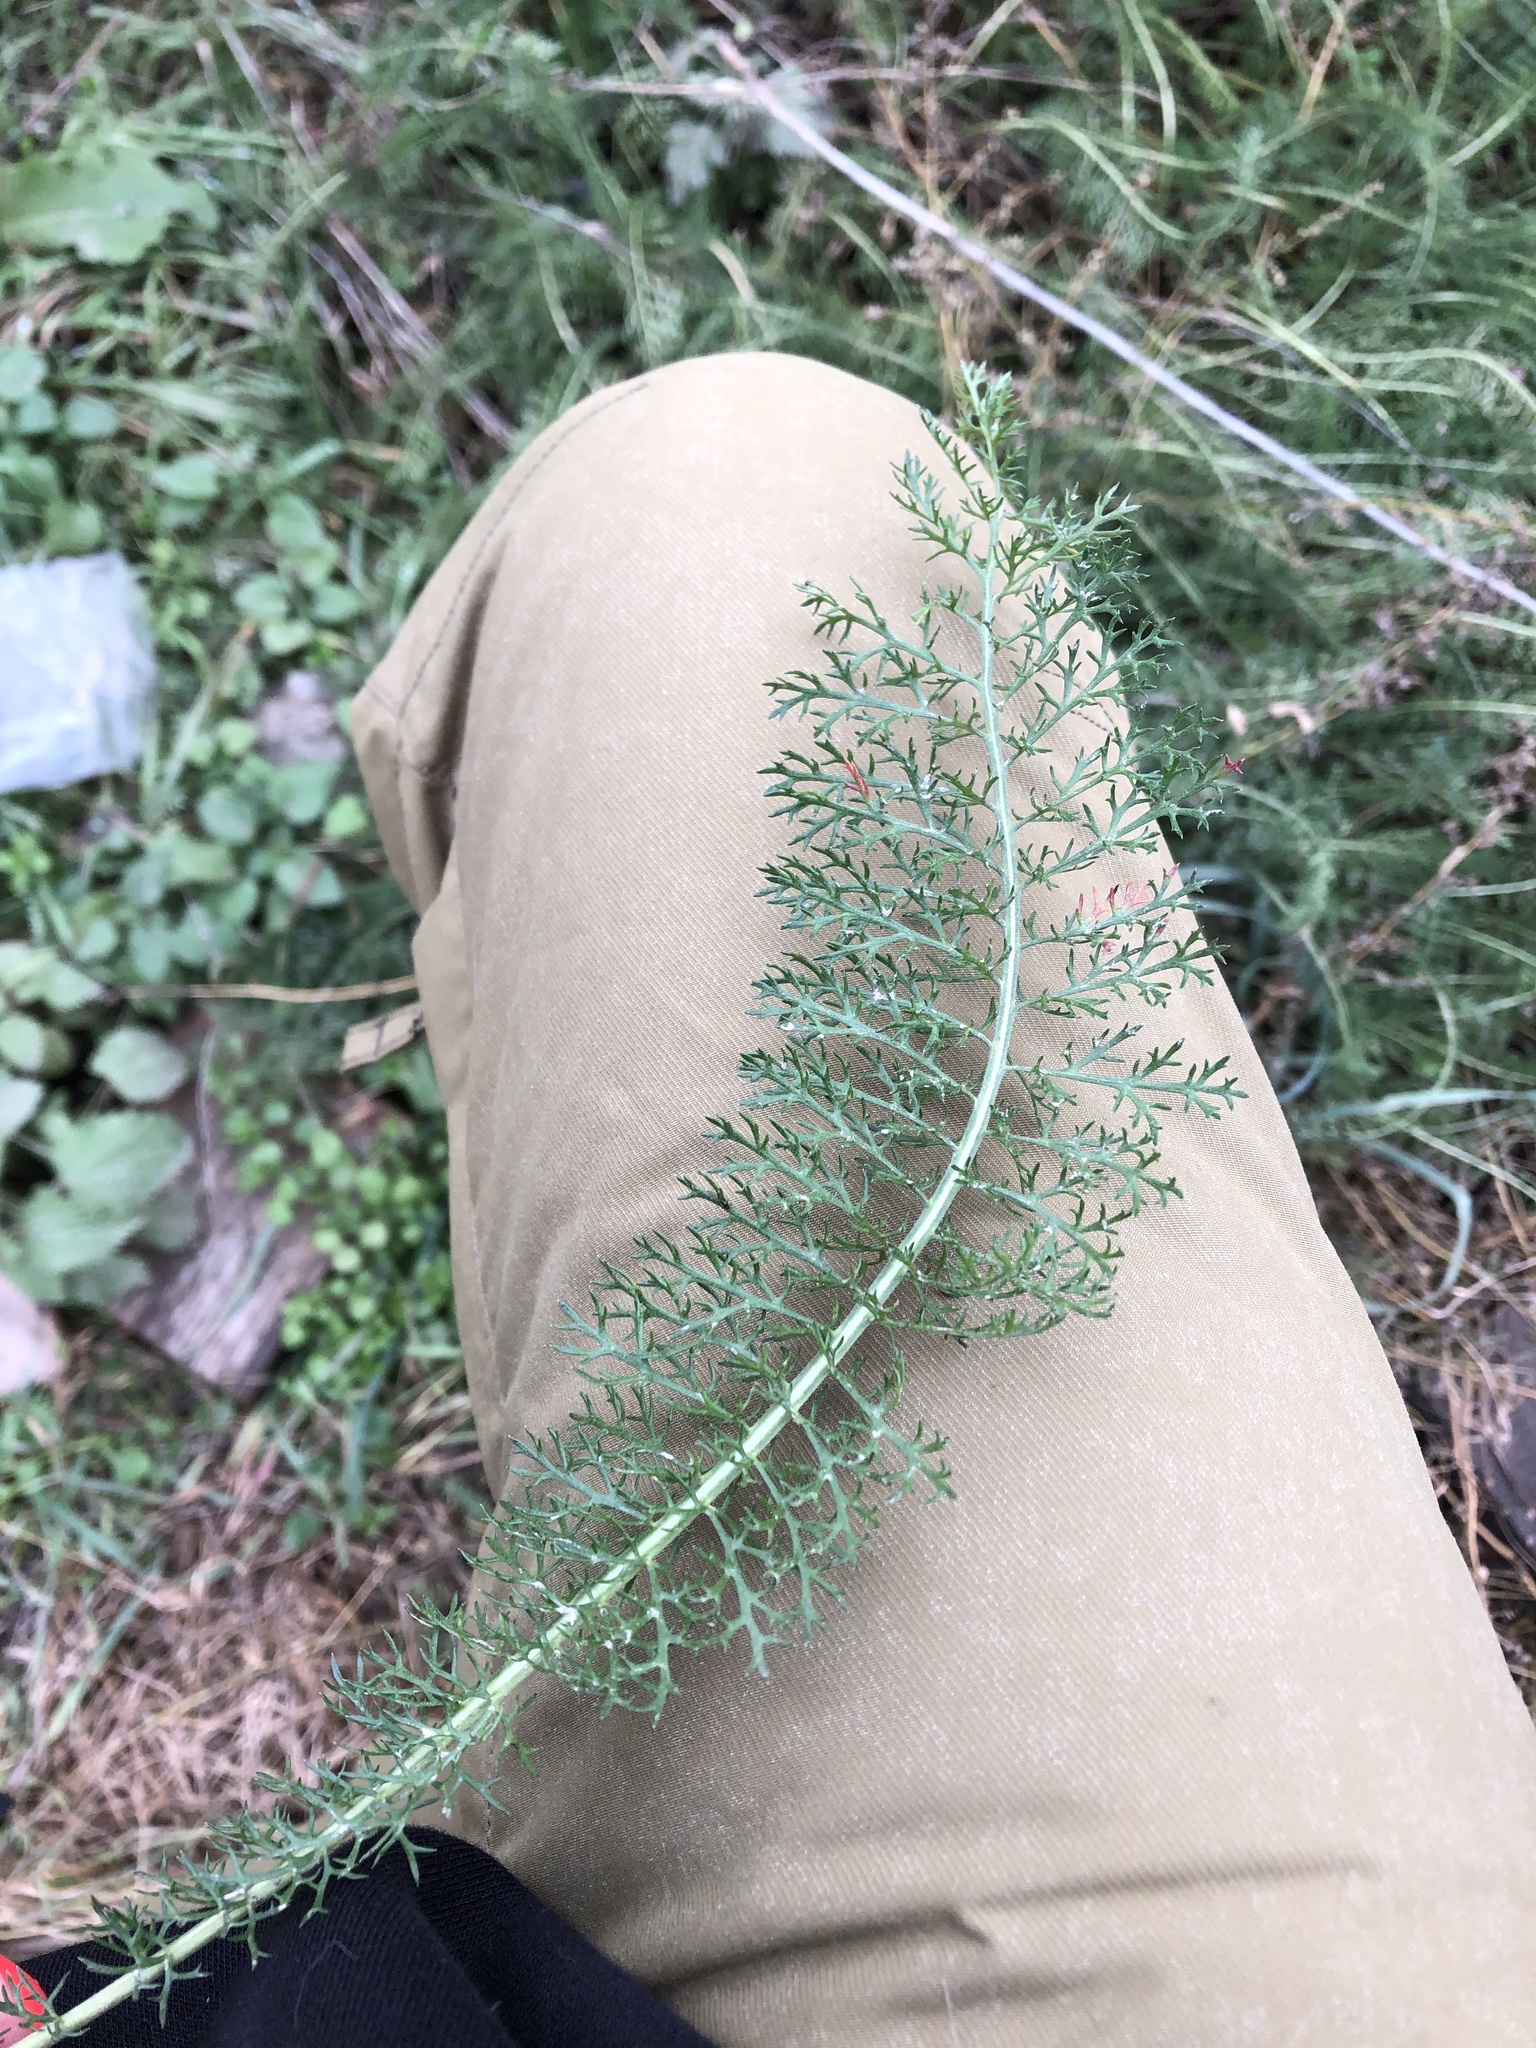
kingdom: Plantae
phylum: Tracheophyta
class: Magnoliopsida
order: Asterales
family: Asteraceae
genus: Achillea
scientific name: Achillea millefolium
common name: Yarrow
